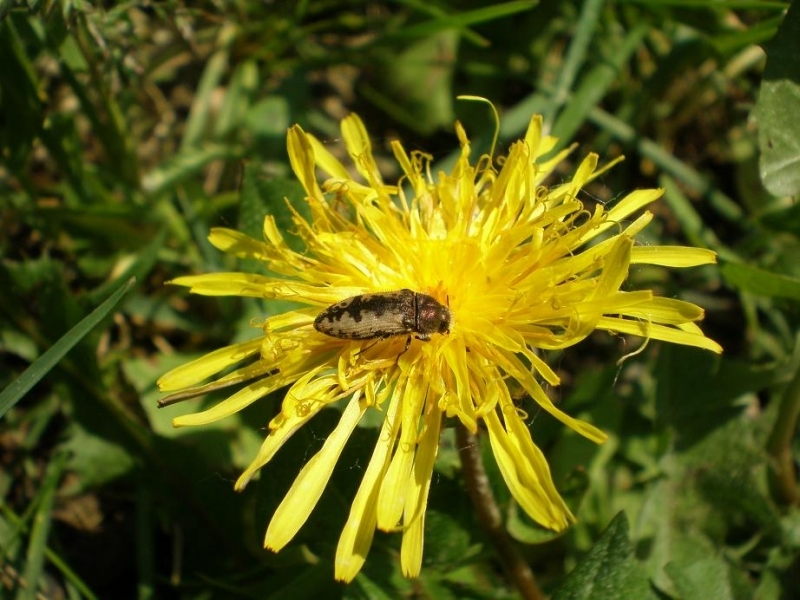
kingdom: Animalia
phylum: Arthropoda
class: Insecta
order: Coleoptera
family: Buprestidae
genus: Acmaeodera
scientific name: Acmaeodera pilosellae
